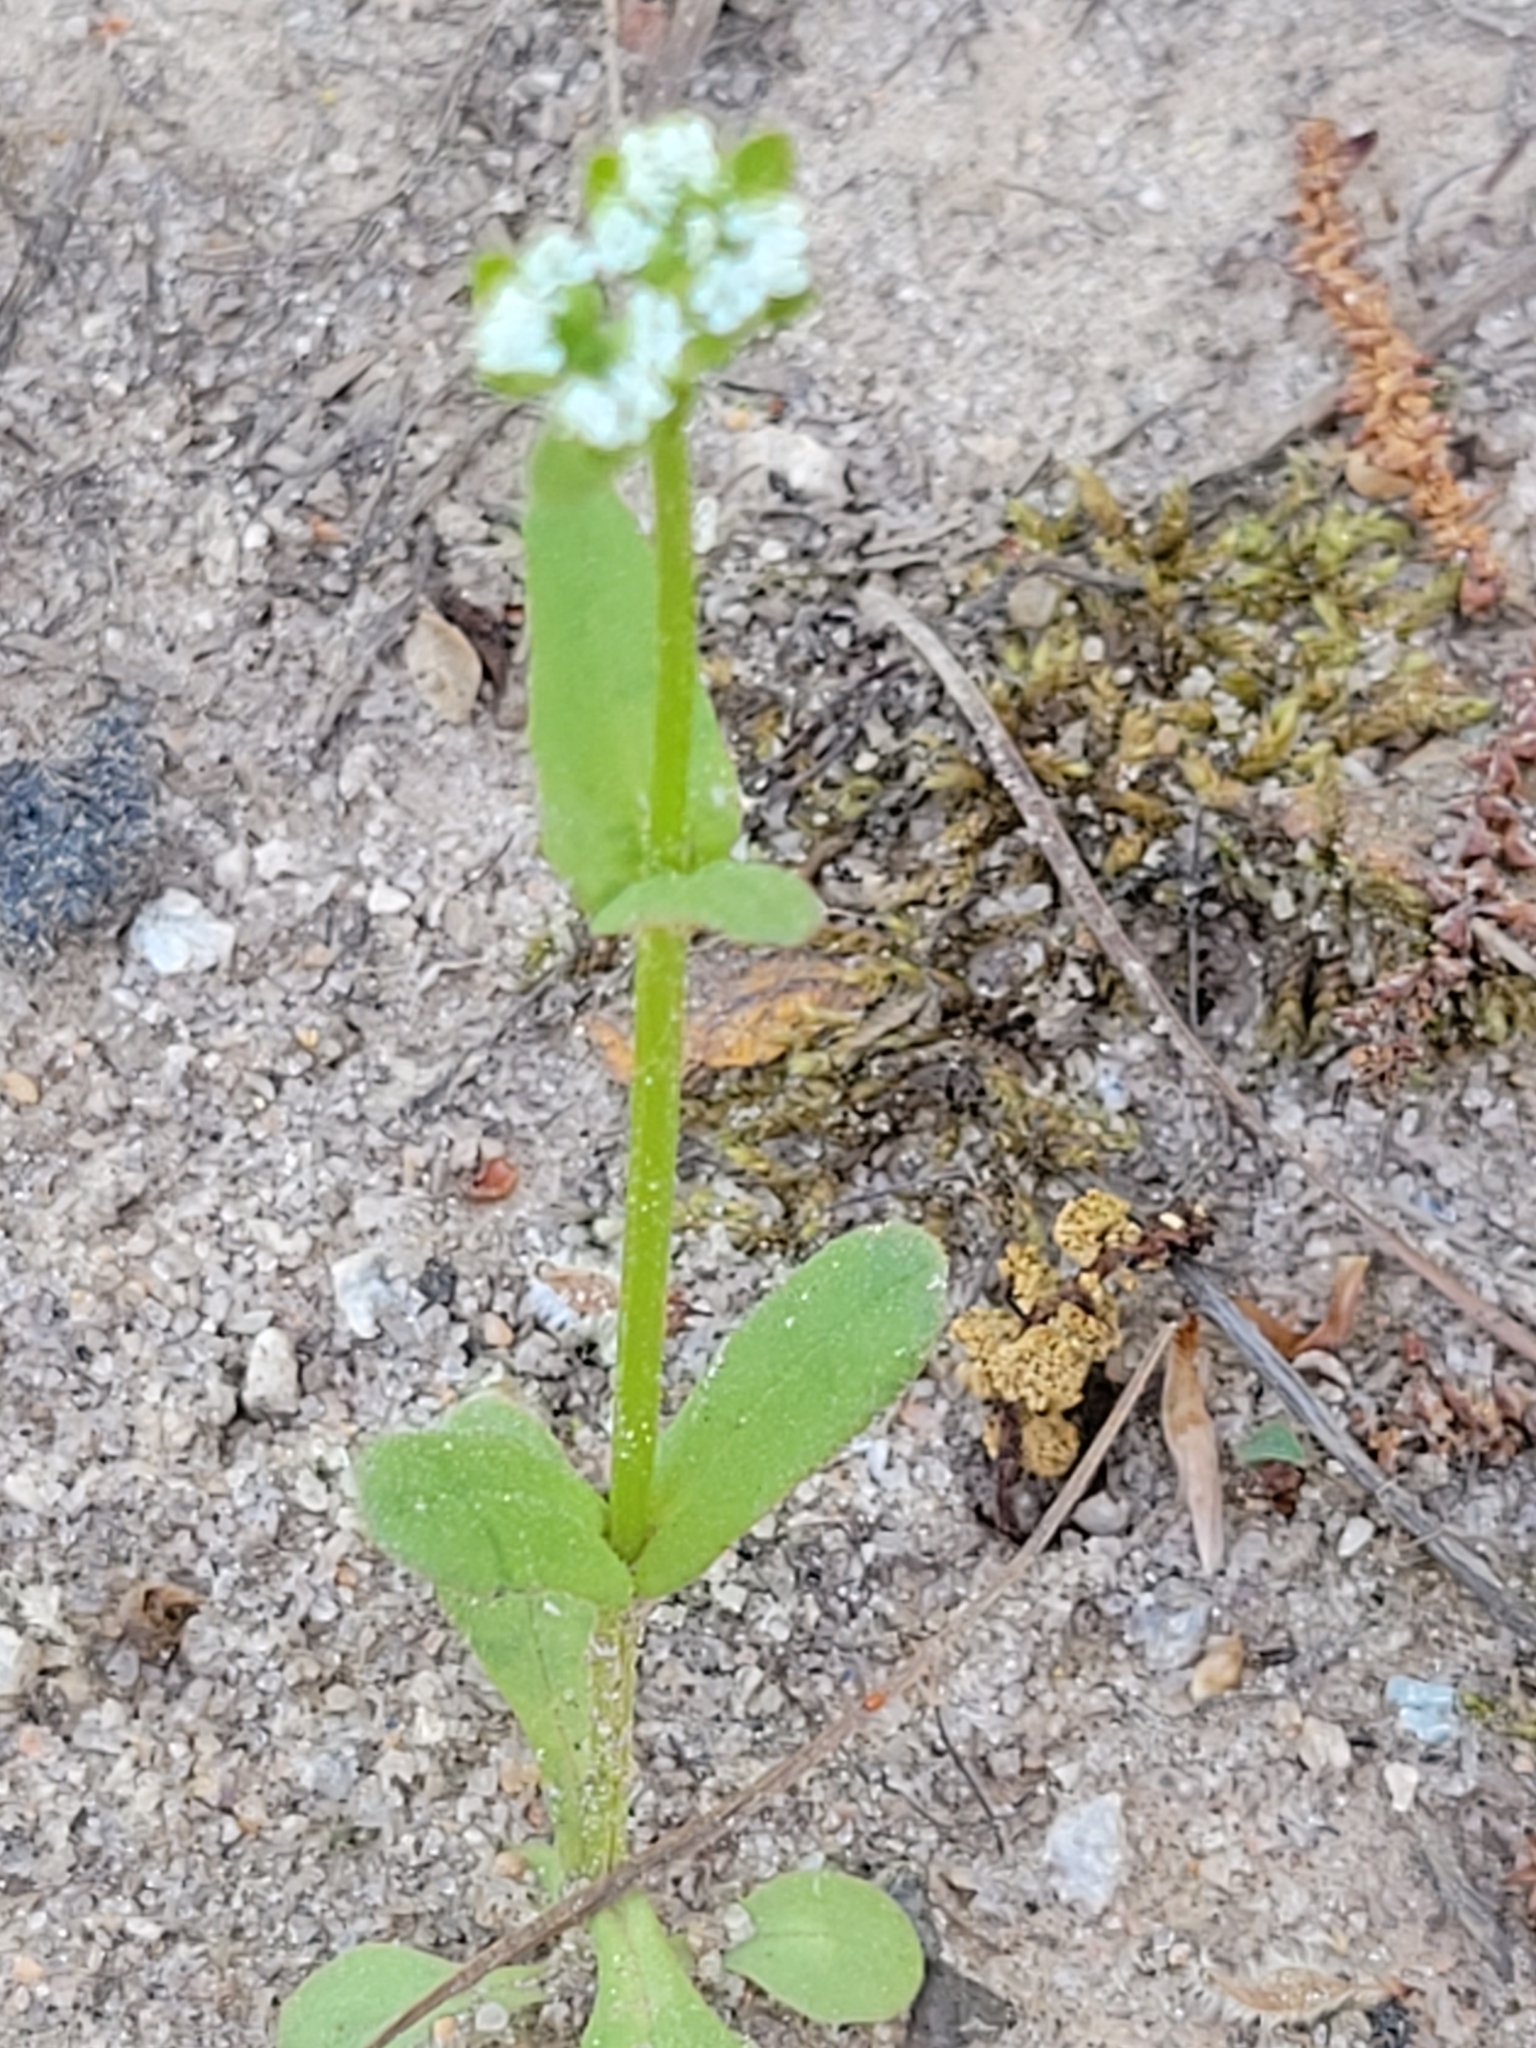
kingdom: Plantae
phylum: Tracheophyta
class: Magnoliopsida
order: Dipsacales
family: Caprifoliaceae
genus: Valerianella
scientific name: Valerianella radiata
